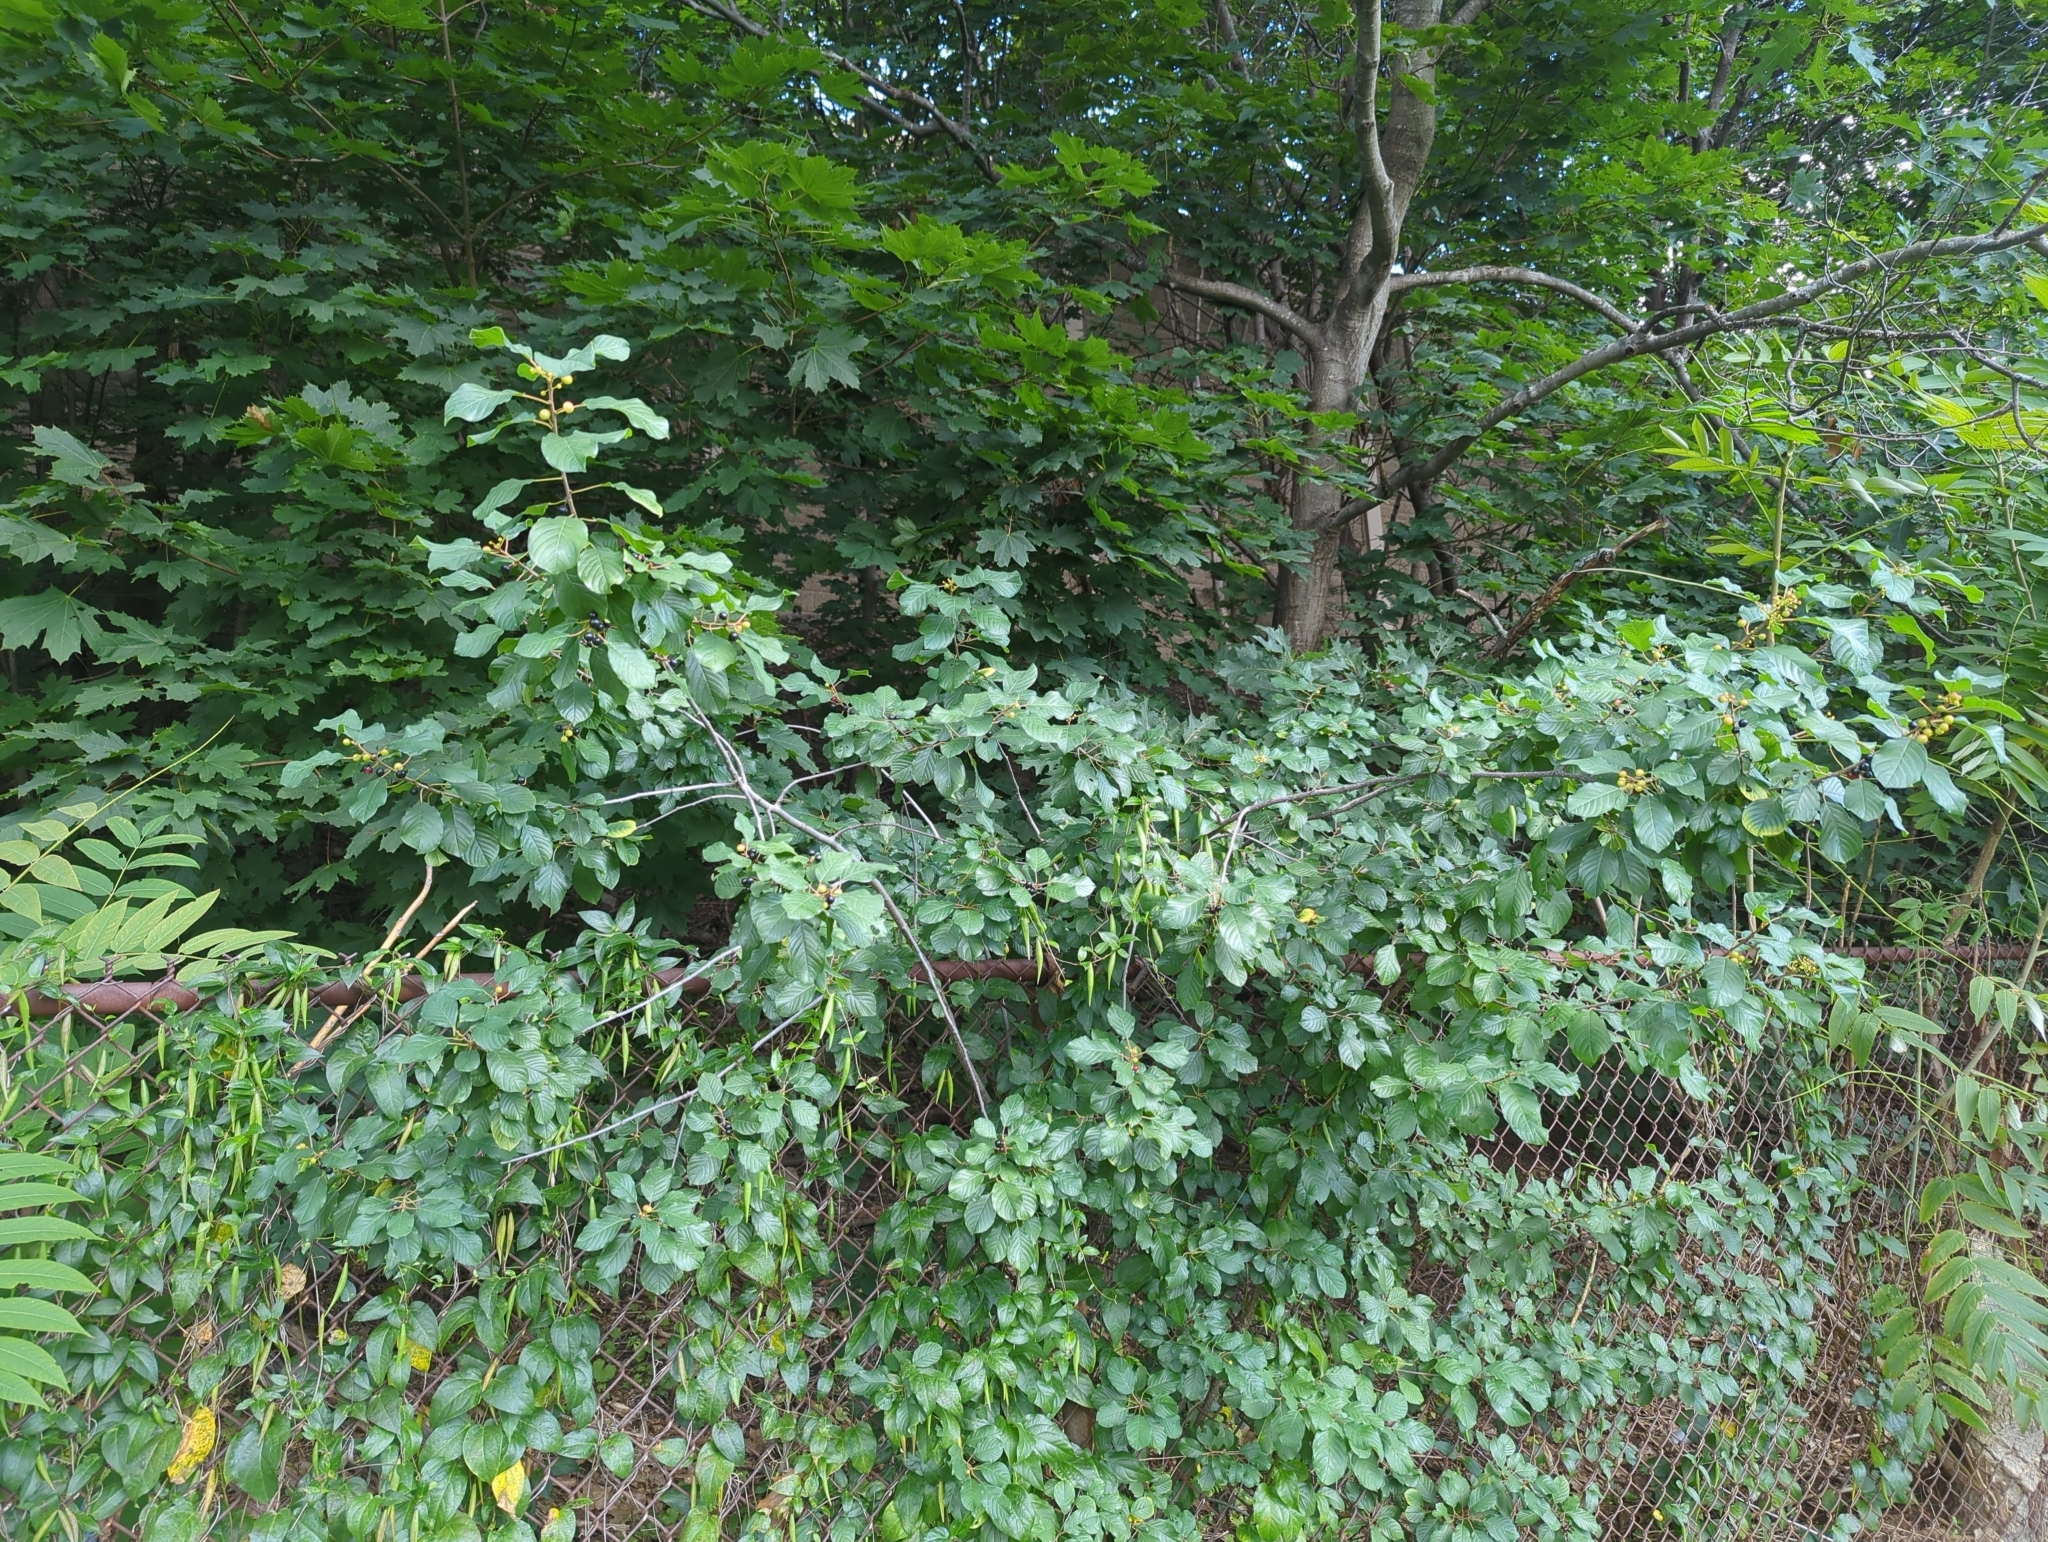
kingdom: Plantae
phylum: Tracheophyta
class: Magnoliopsida
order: Rosales
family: Rhamnaceae
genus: Frangula
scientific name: Frangula alnus
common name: Alder buckthorn
